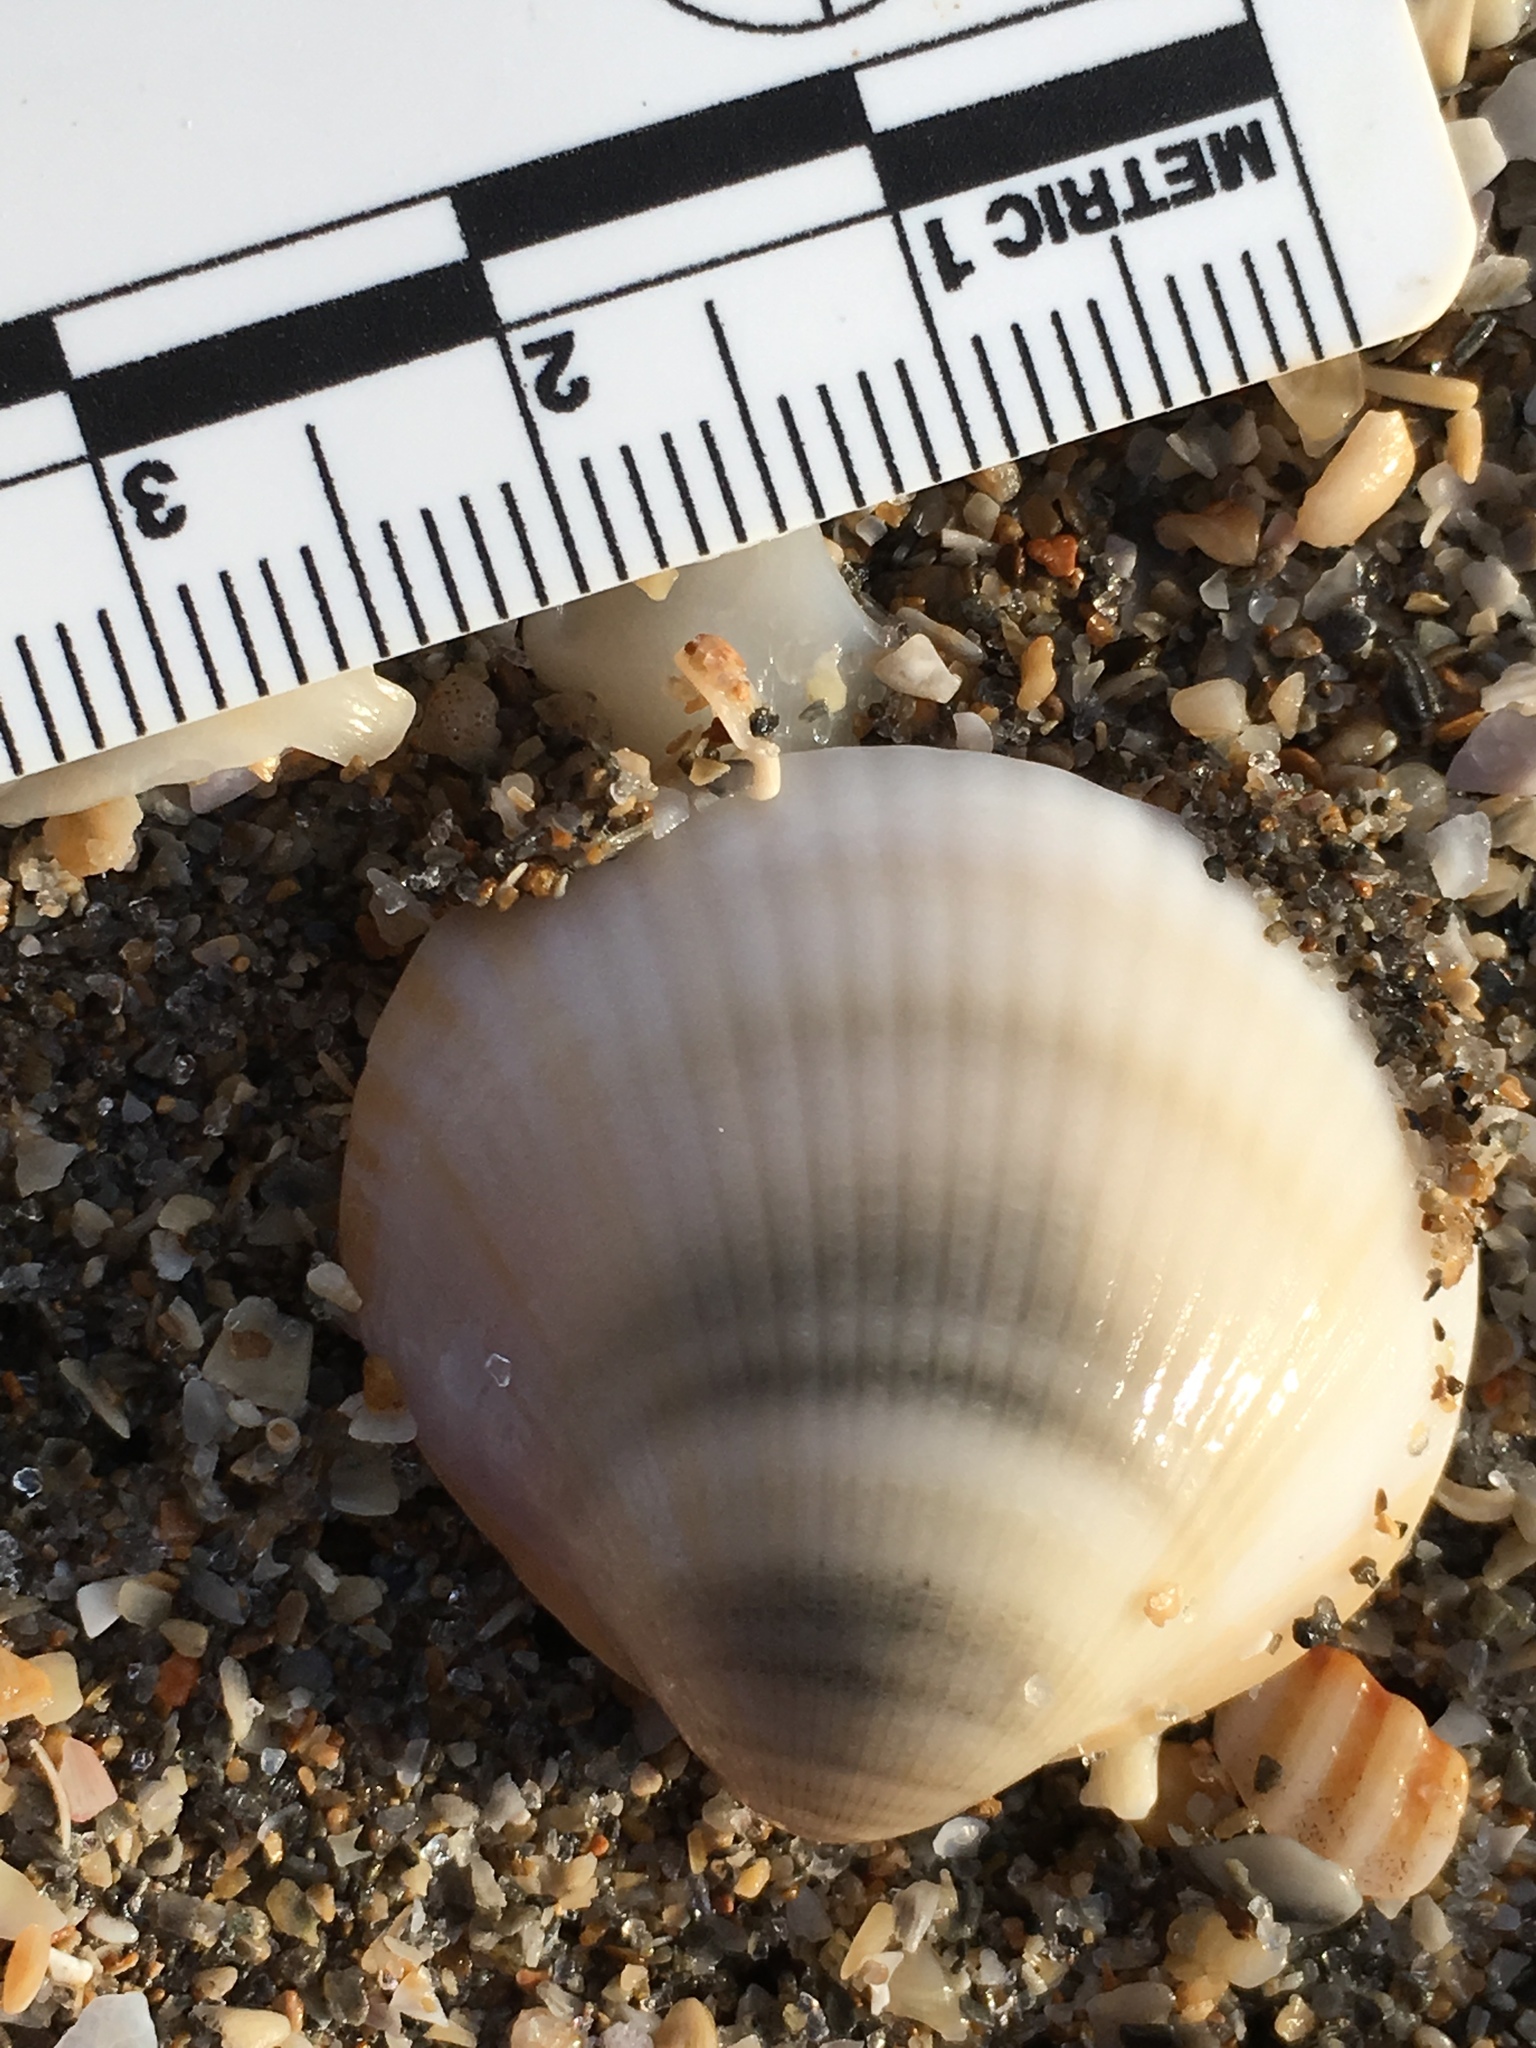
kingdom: Animalia
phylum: Mollusca
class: Bivalvia
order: Arcida
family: Glycymerididae
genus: Glycymeris
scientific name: Glycymeris spectralis
